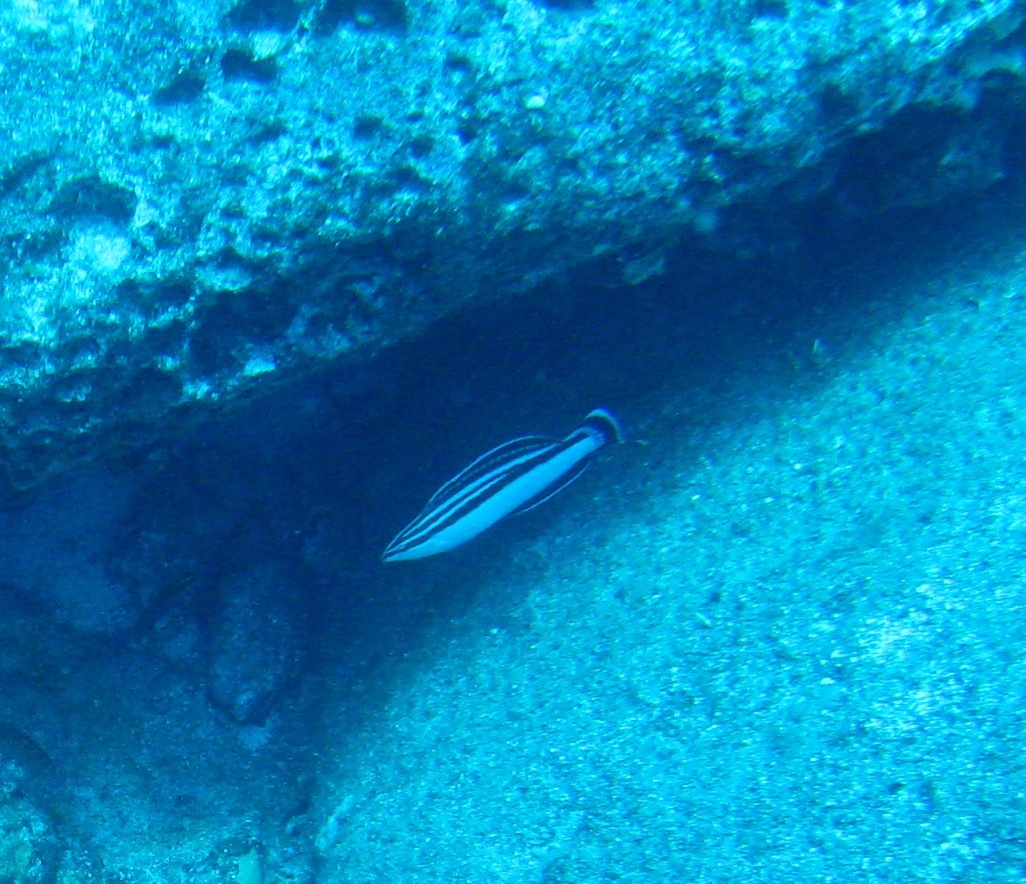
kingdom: Animalia
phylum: Chordata
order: Perciformes
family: Labridae
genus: Coris
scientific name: Coris flavovittata
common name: Yellowstripe coris
